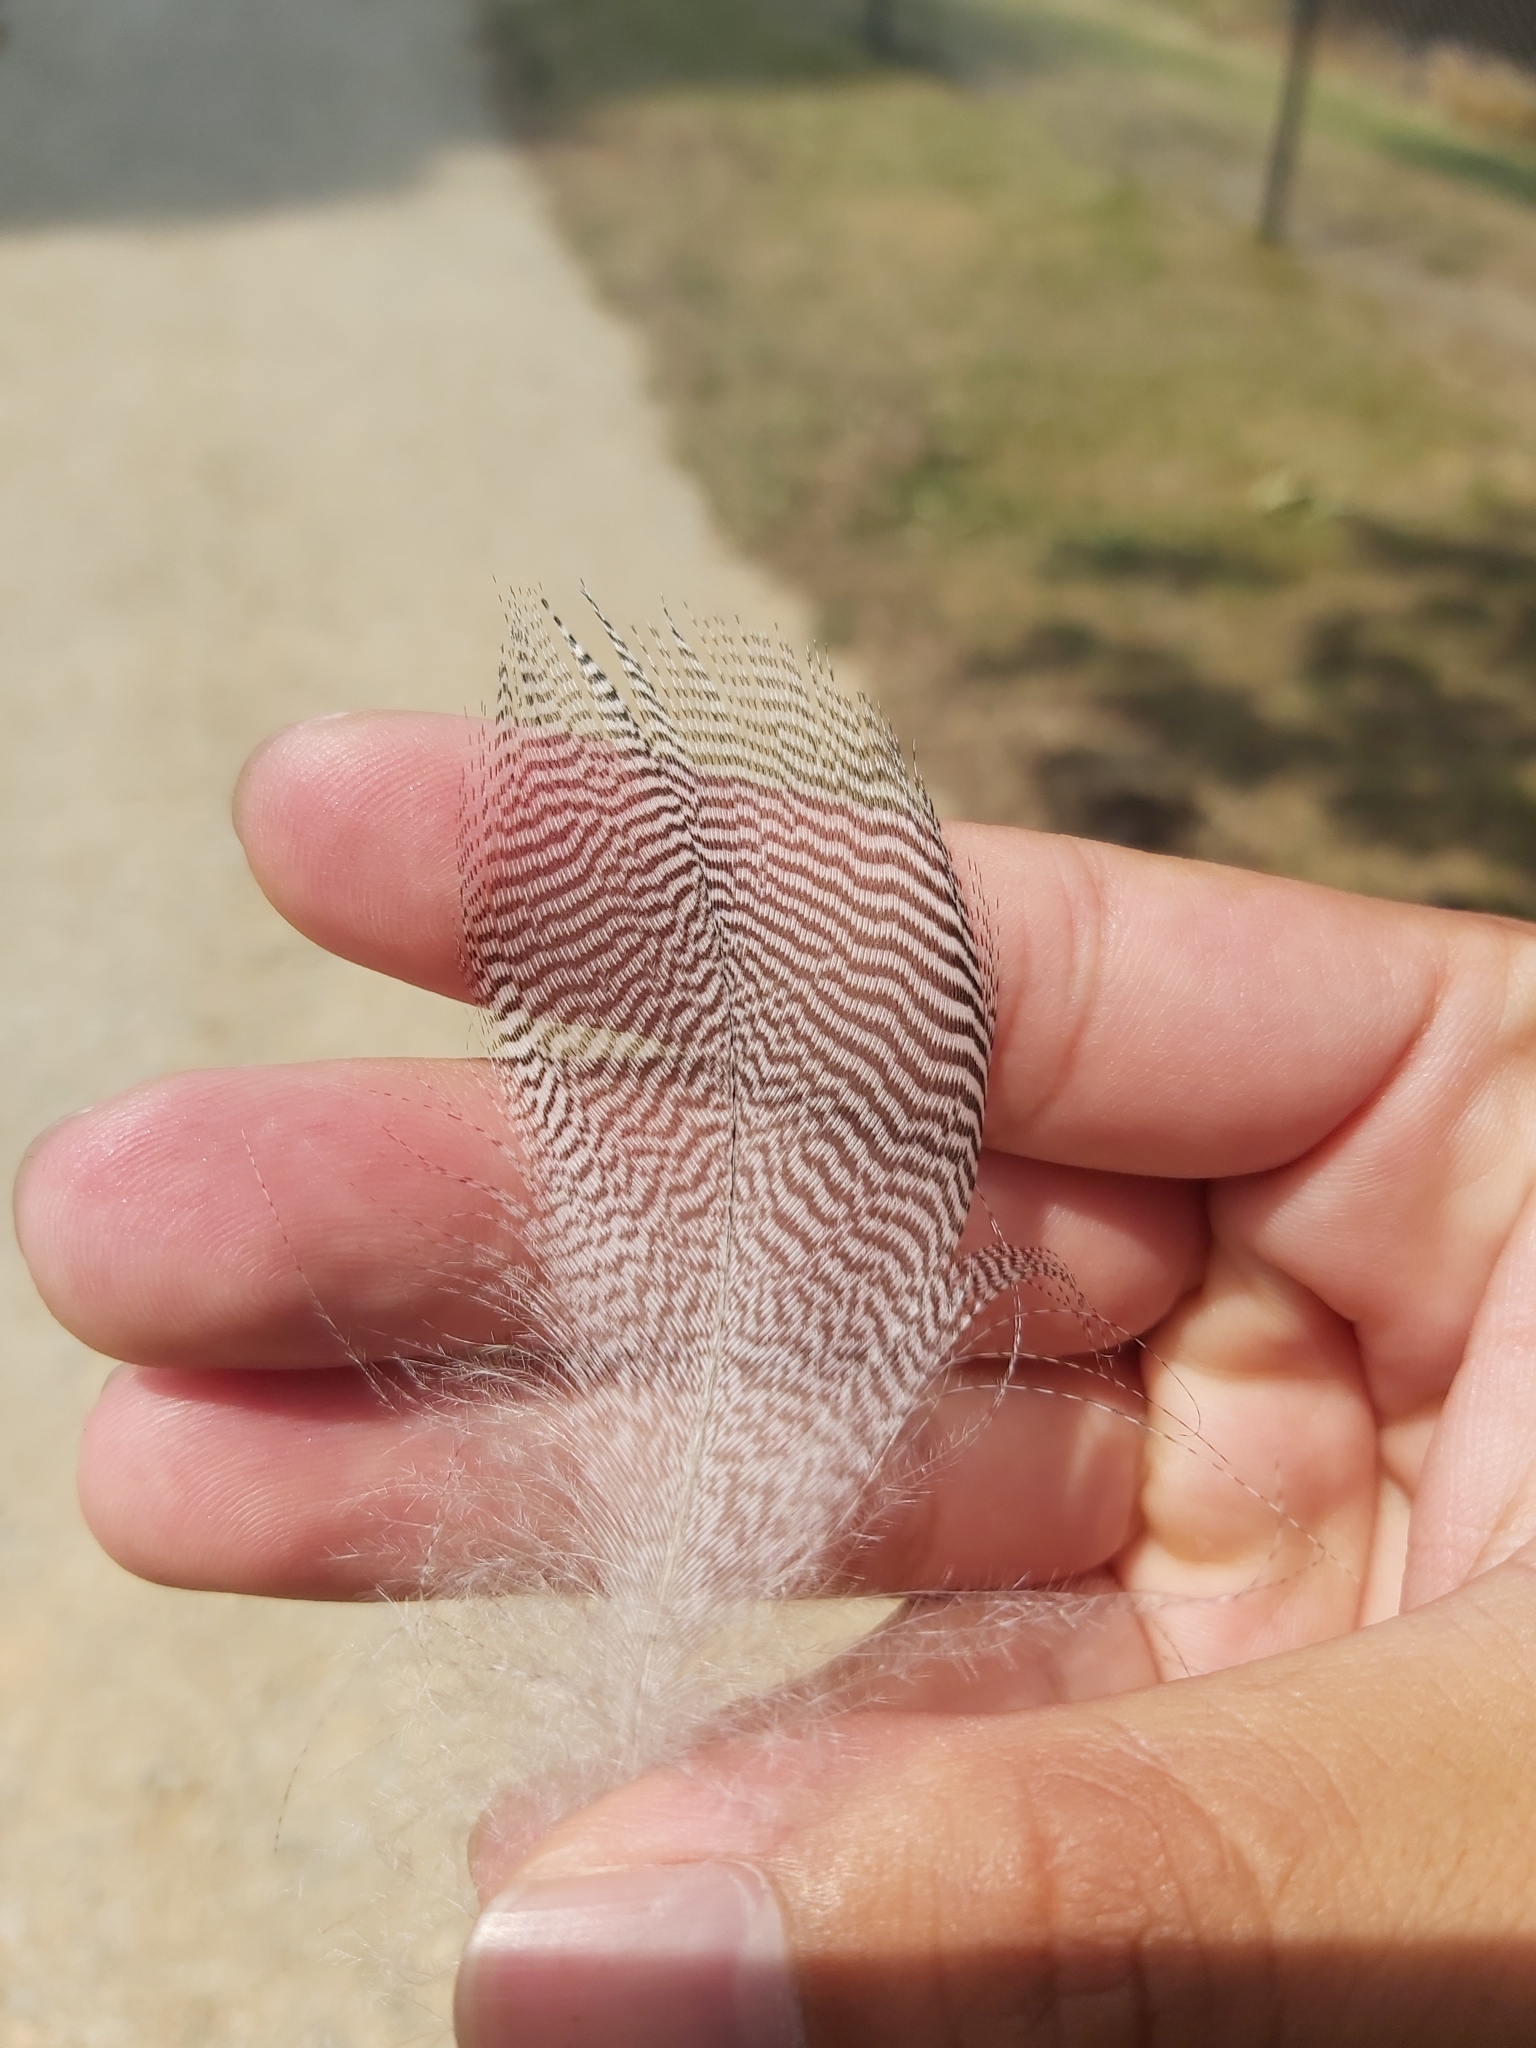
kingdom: Animalia
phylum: Chordata
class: Aves
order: Anseriformes
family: Anatidae
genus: Chenonetta
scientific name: Chenonetta jubata
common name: Maned duck
